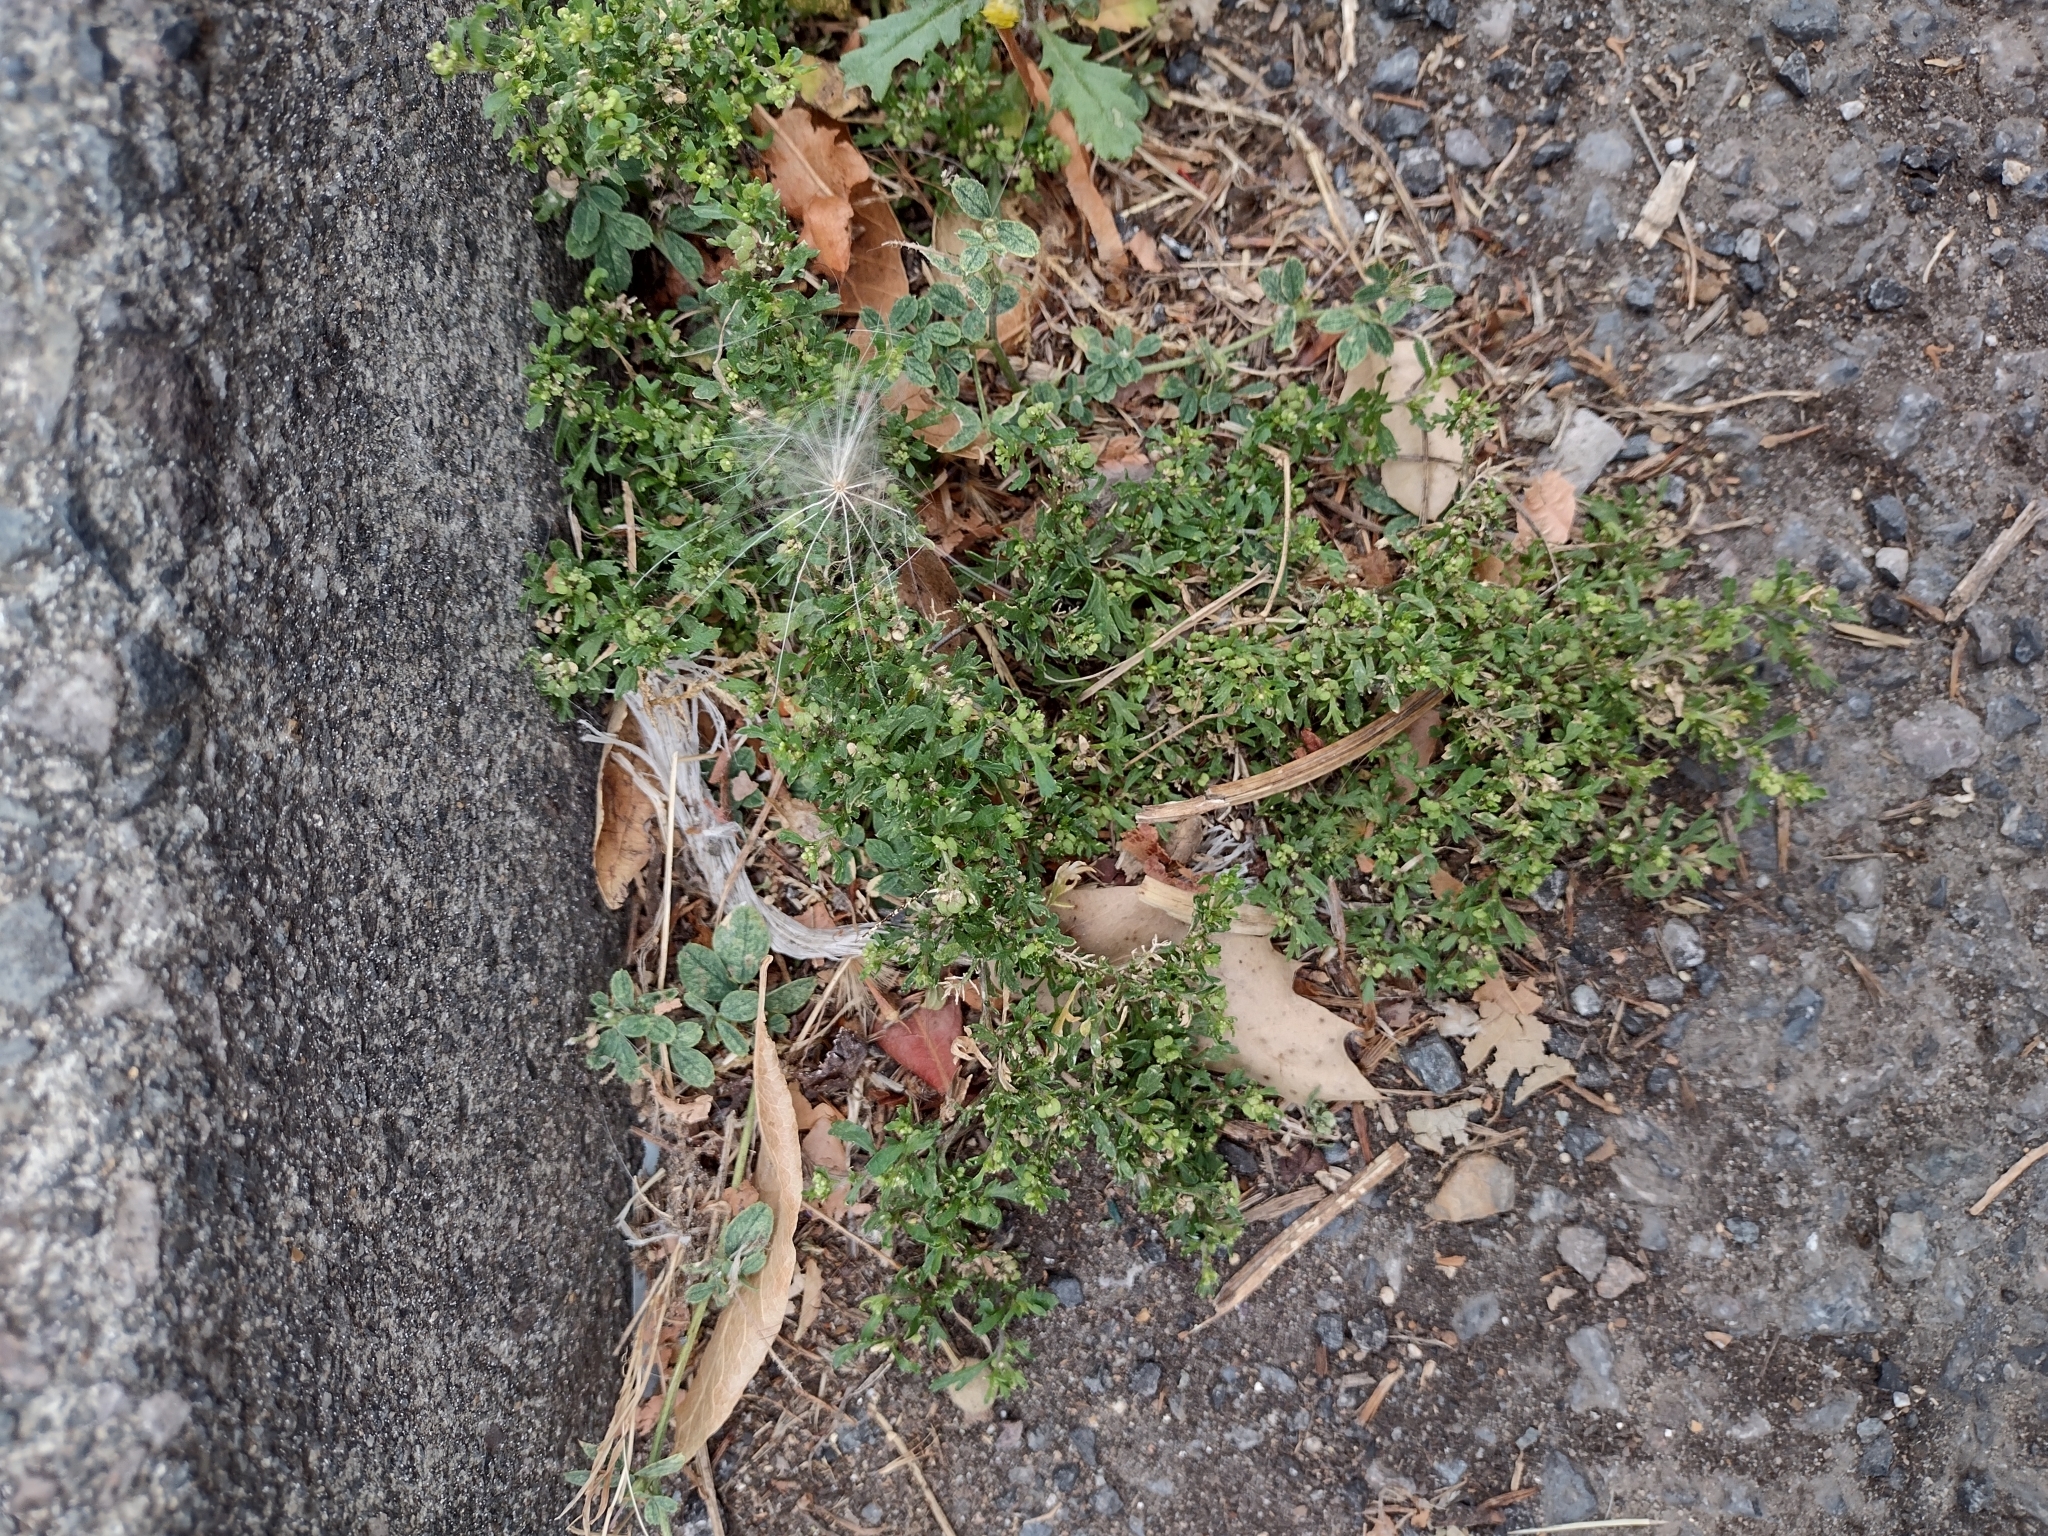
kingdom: Plantae
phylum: Tracheophyta
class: Magnoliopsida
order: Brassicales
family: Brassicaceae
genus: Lepidium
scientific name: Lepidium didymum
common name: Lesser swinecress
